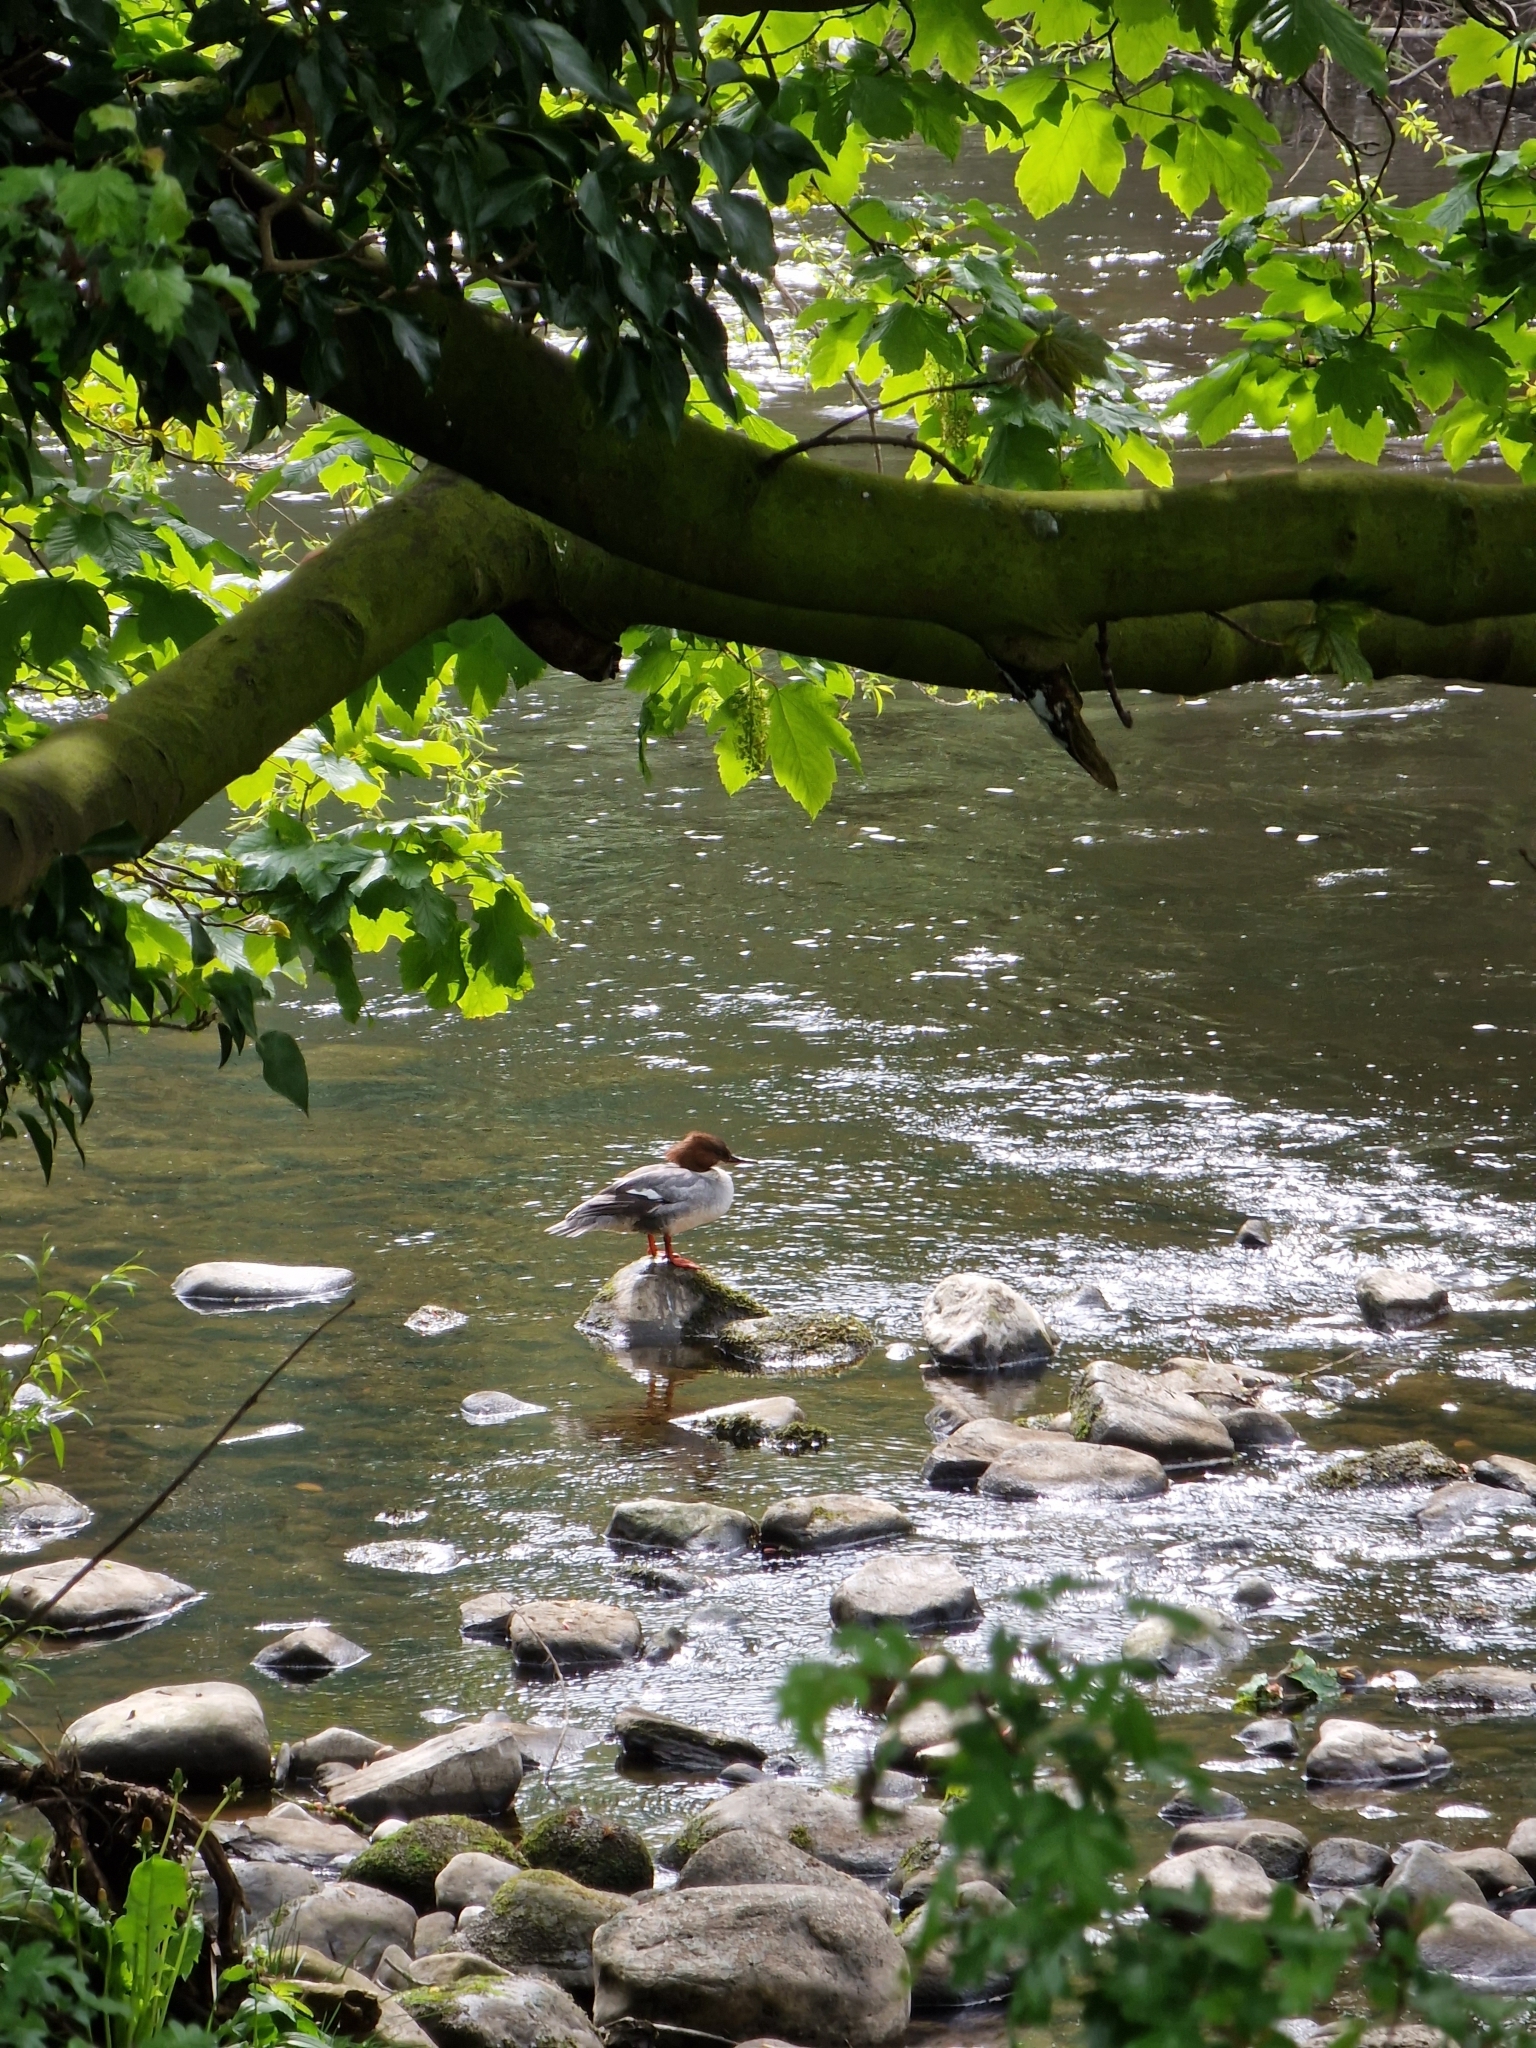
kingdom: Animalia
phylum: Chordata
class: Aves
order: Anseriformes
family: Anatidae
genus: Mergus
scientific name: Mergus merganser
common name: Common merganser
